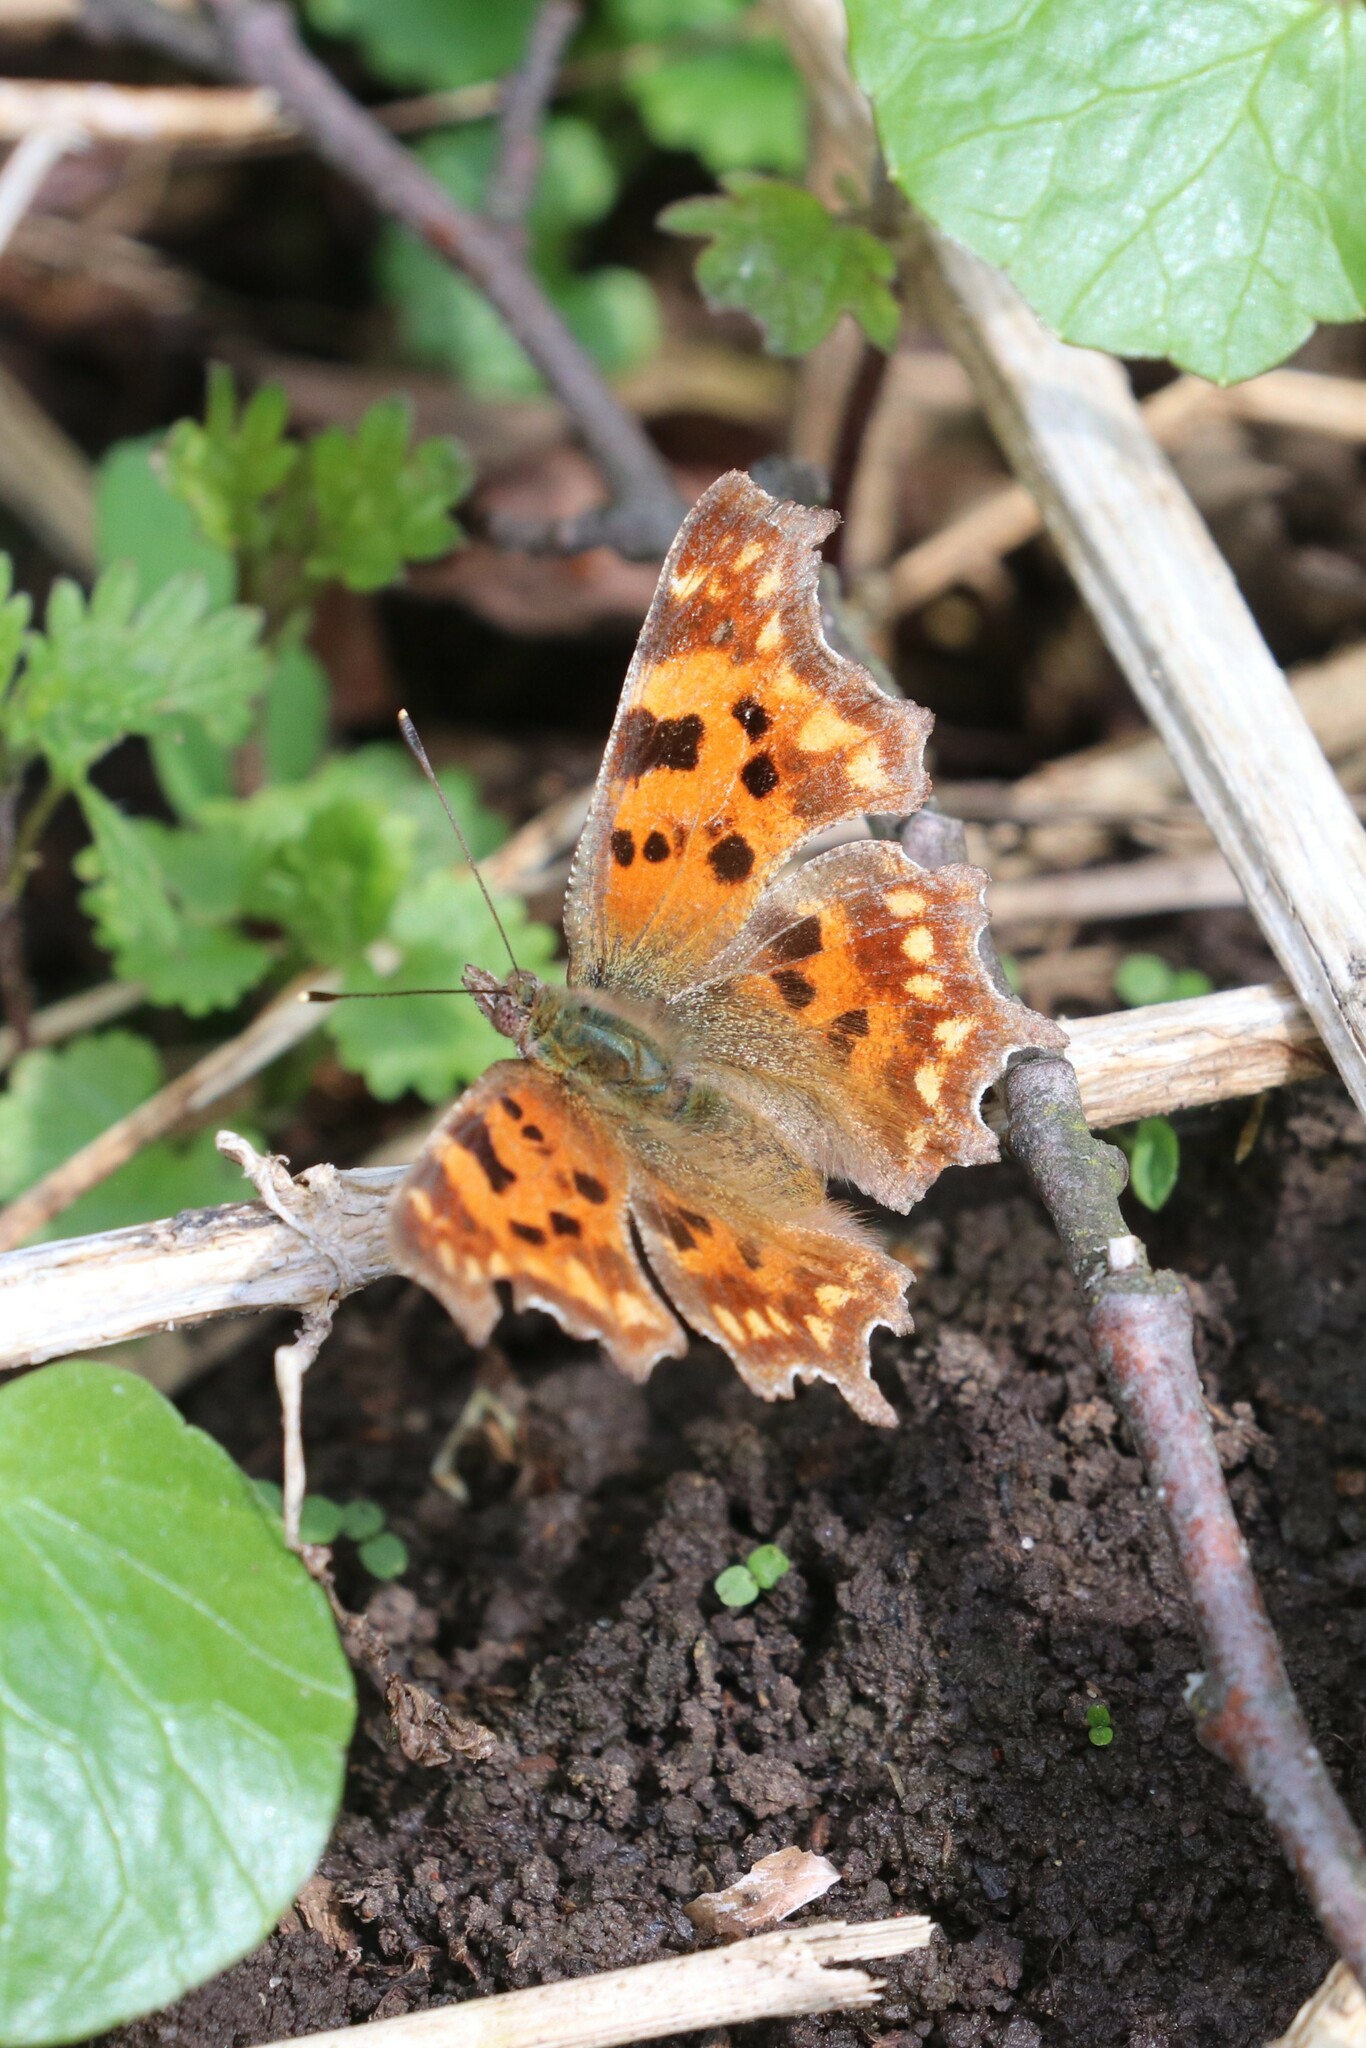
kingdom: Animalia
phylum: Arthropoda
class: Insecta
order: Lepidoptera
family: Nymphalidae
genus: Polygonia
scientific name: Polygonia c-album
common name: Comma
